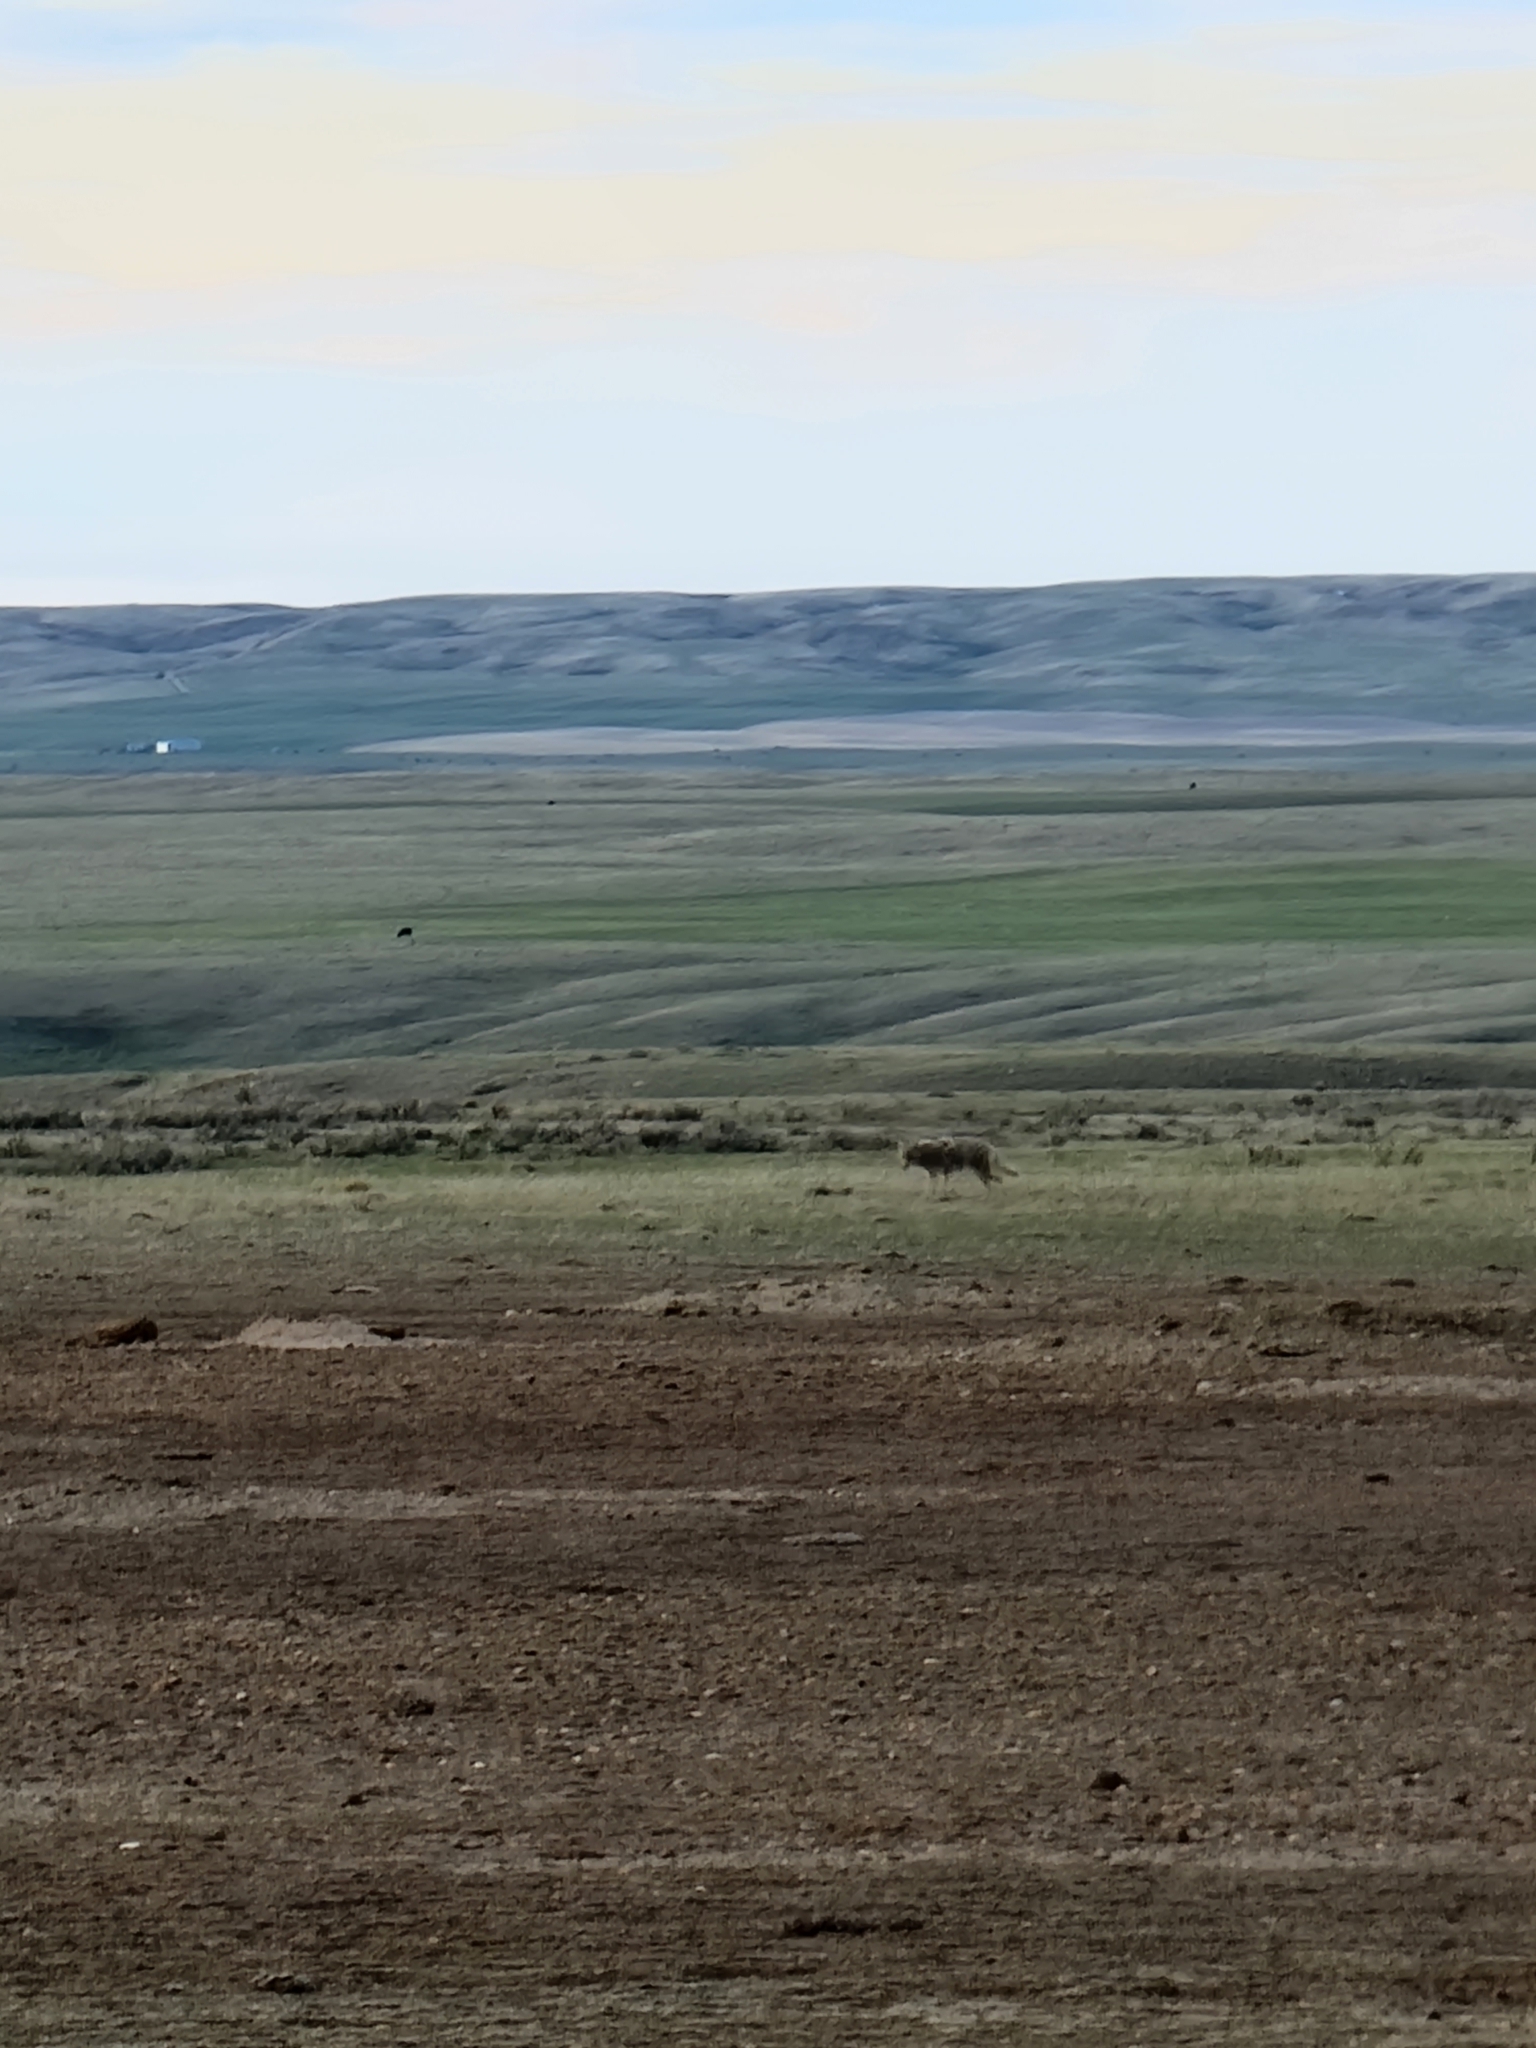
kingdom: Animalia
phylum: Chordata
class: Mammalia
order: Carnivora
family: Canidae
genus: Canis
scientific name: Canis latrans
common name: Coyote
